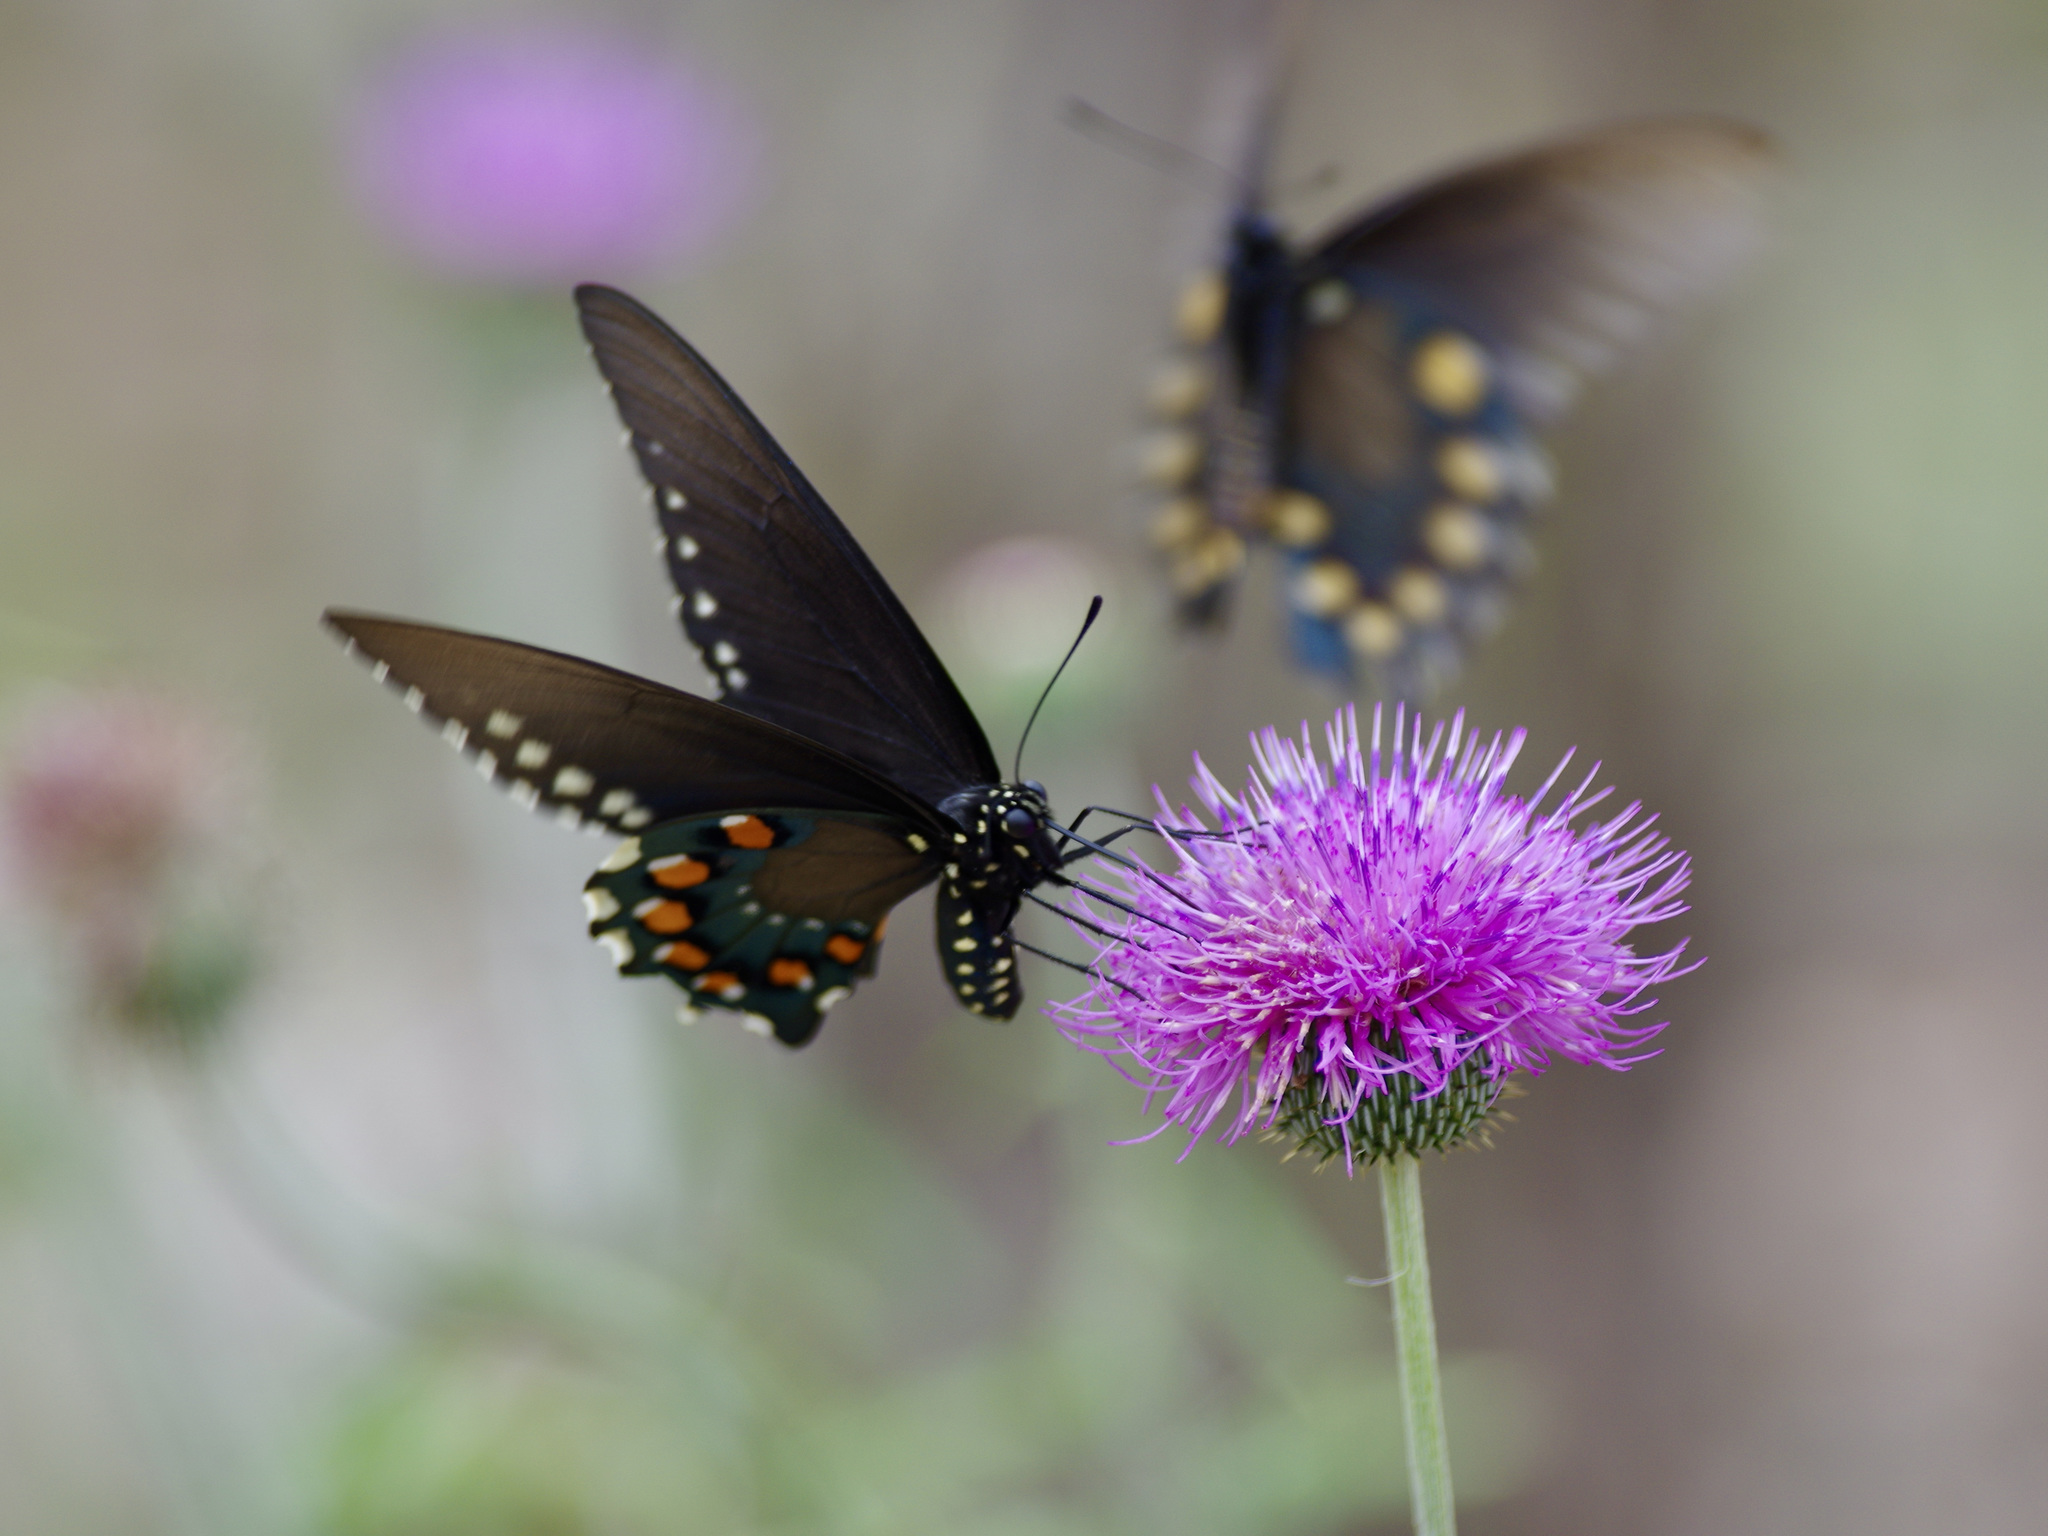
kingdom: Animalia
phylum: Arthropoda
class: Insecta
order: Lepidoptera
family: Papilionidae
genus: Battus
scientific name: Battus philenor
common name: Pipevine swallowtail
